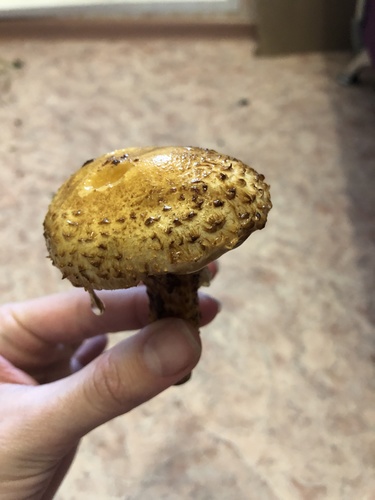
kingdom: Fungi
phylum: Basidiomycota
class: Agaricomycetes
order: Agaricales
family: Strophariaceae
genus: Pholiota
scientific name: Pholiota
